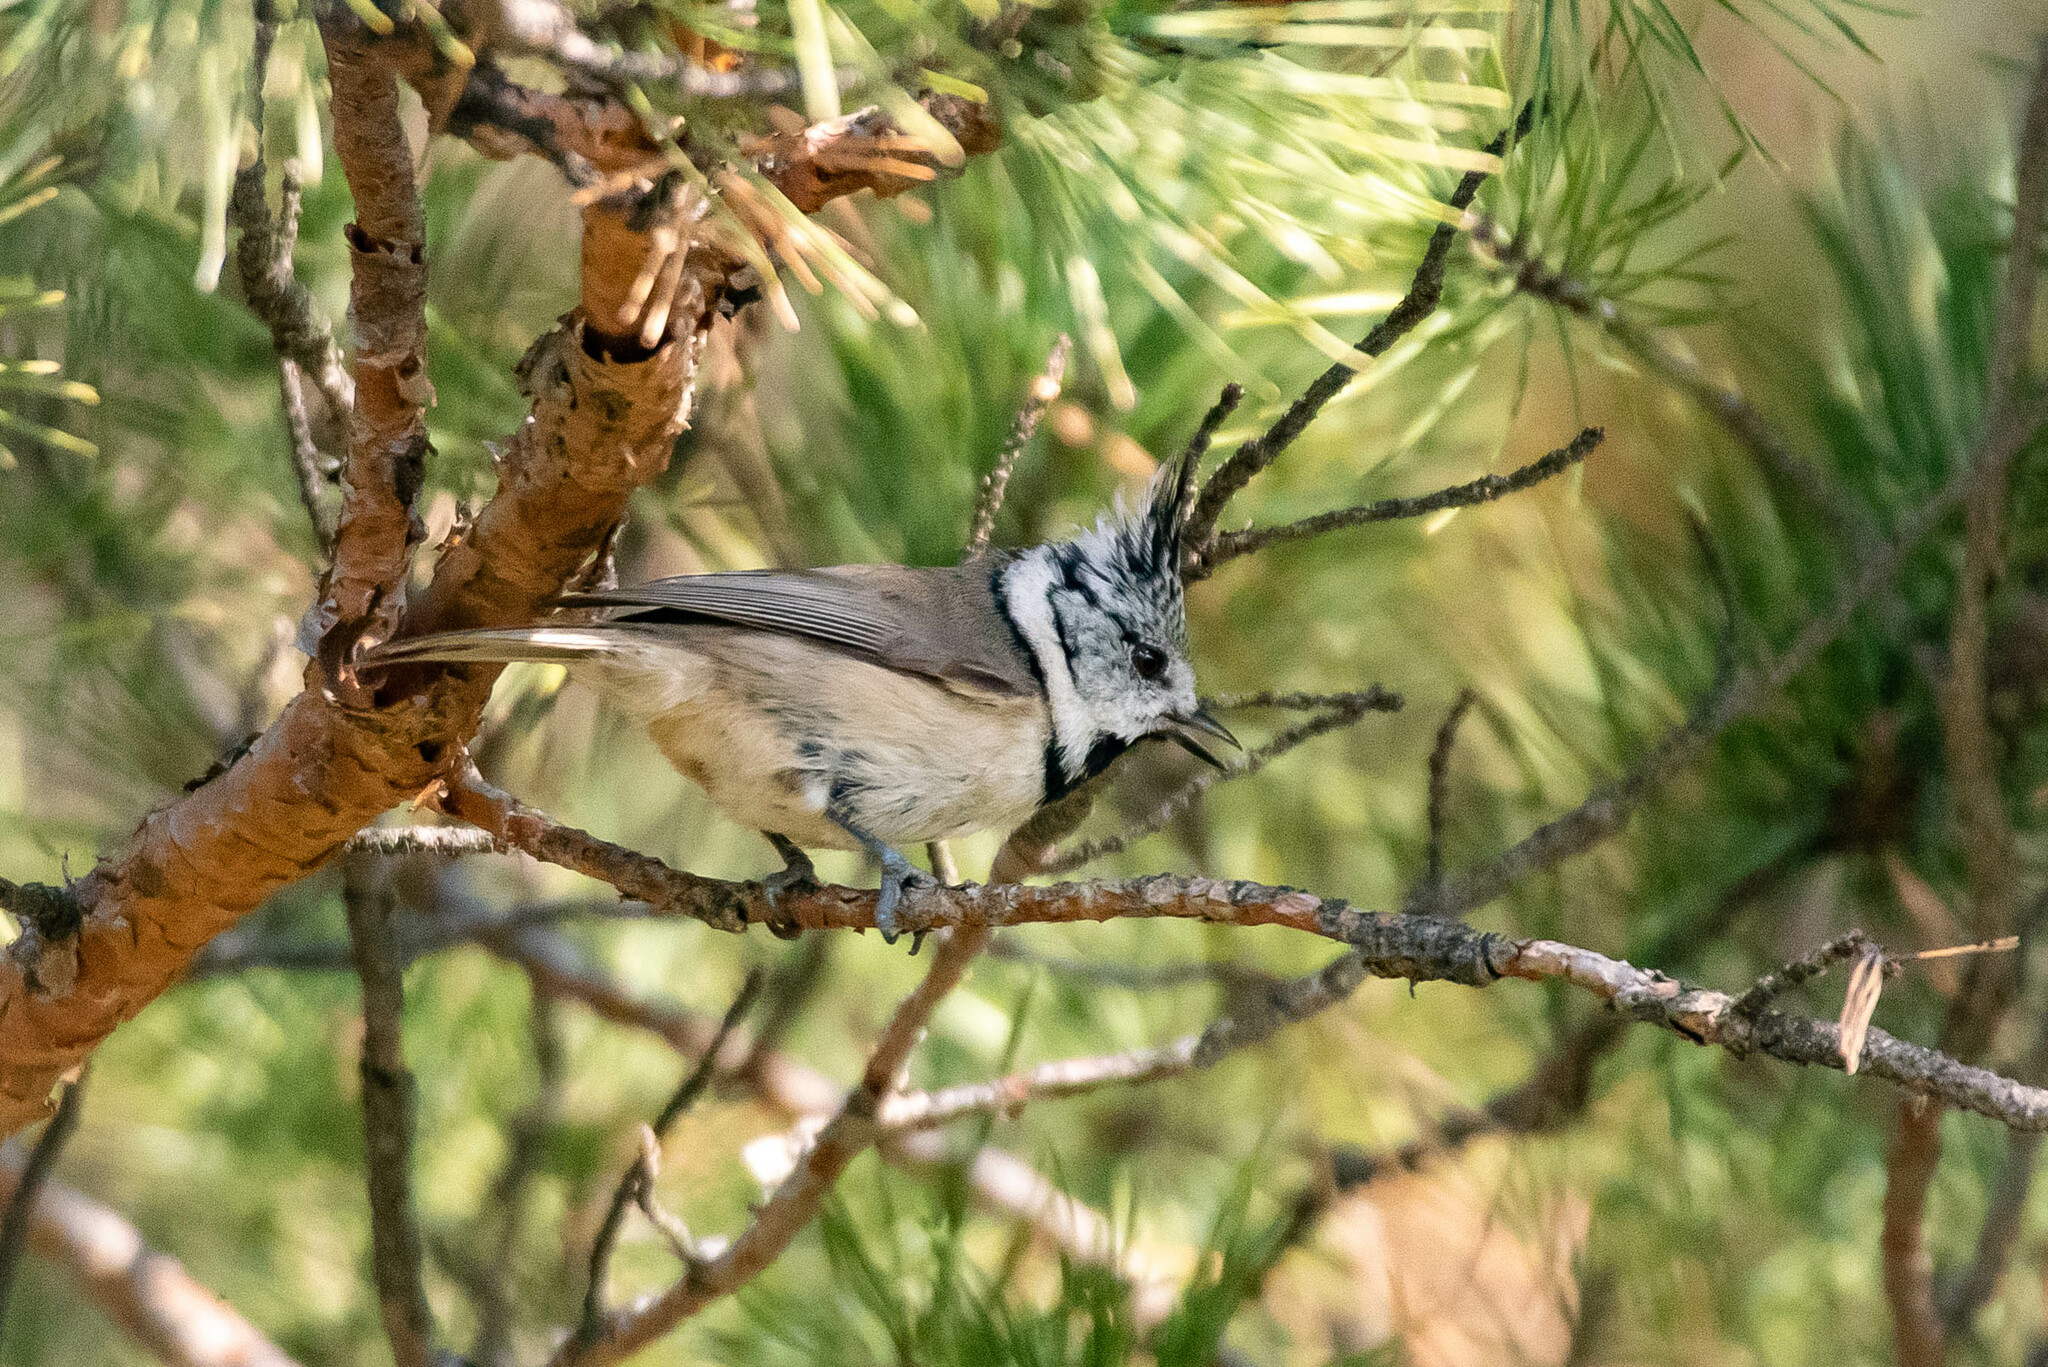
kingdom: Animalia
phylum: Chordata
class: Aves
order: Passeriformes
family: Paridae
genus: Lophophanes
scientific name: Lophophanes cristatus
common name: European crested tit
